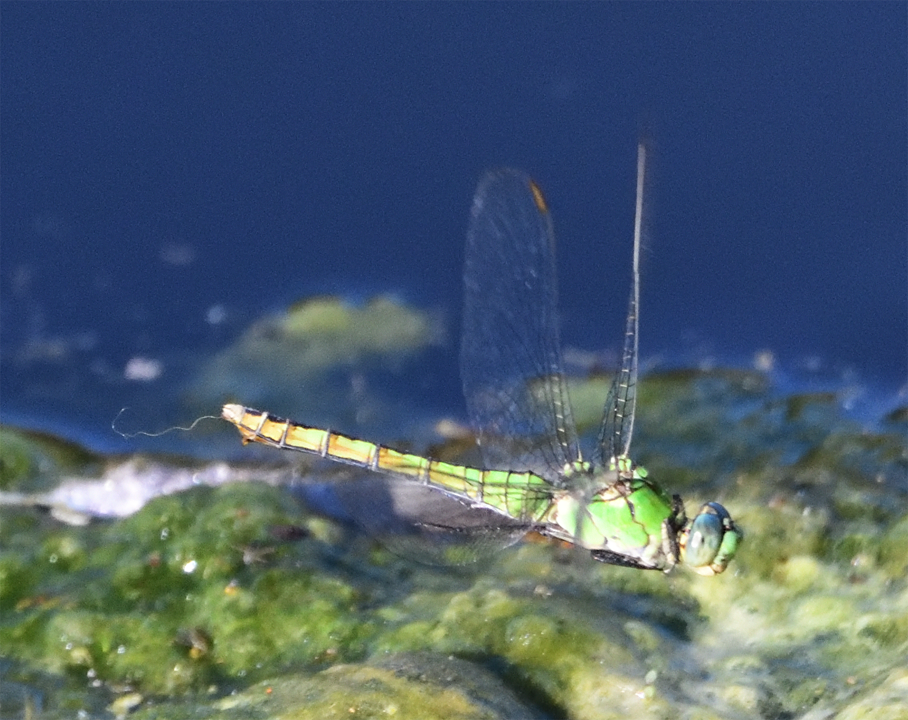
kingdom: Animalia
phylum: Arthropoda
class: Insecta
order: Odonata
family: Libellulidae
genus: Erythemis
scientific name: Erythemis collocata
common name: Western pondhawk
